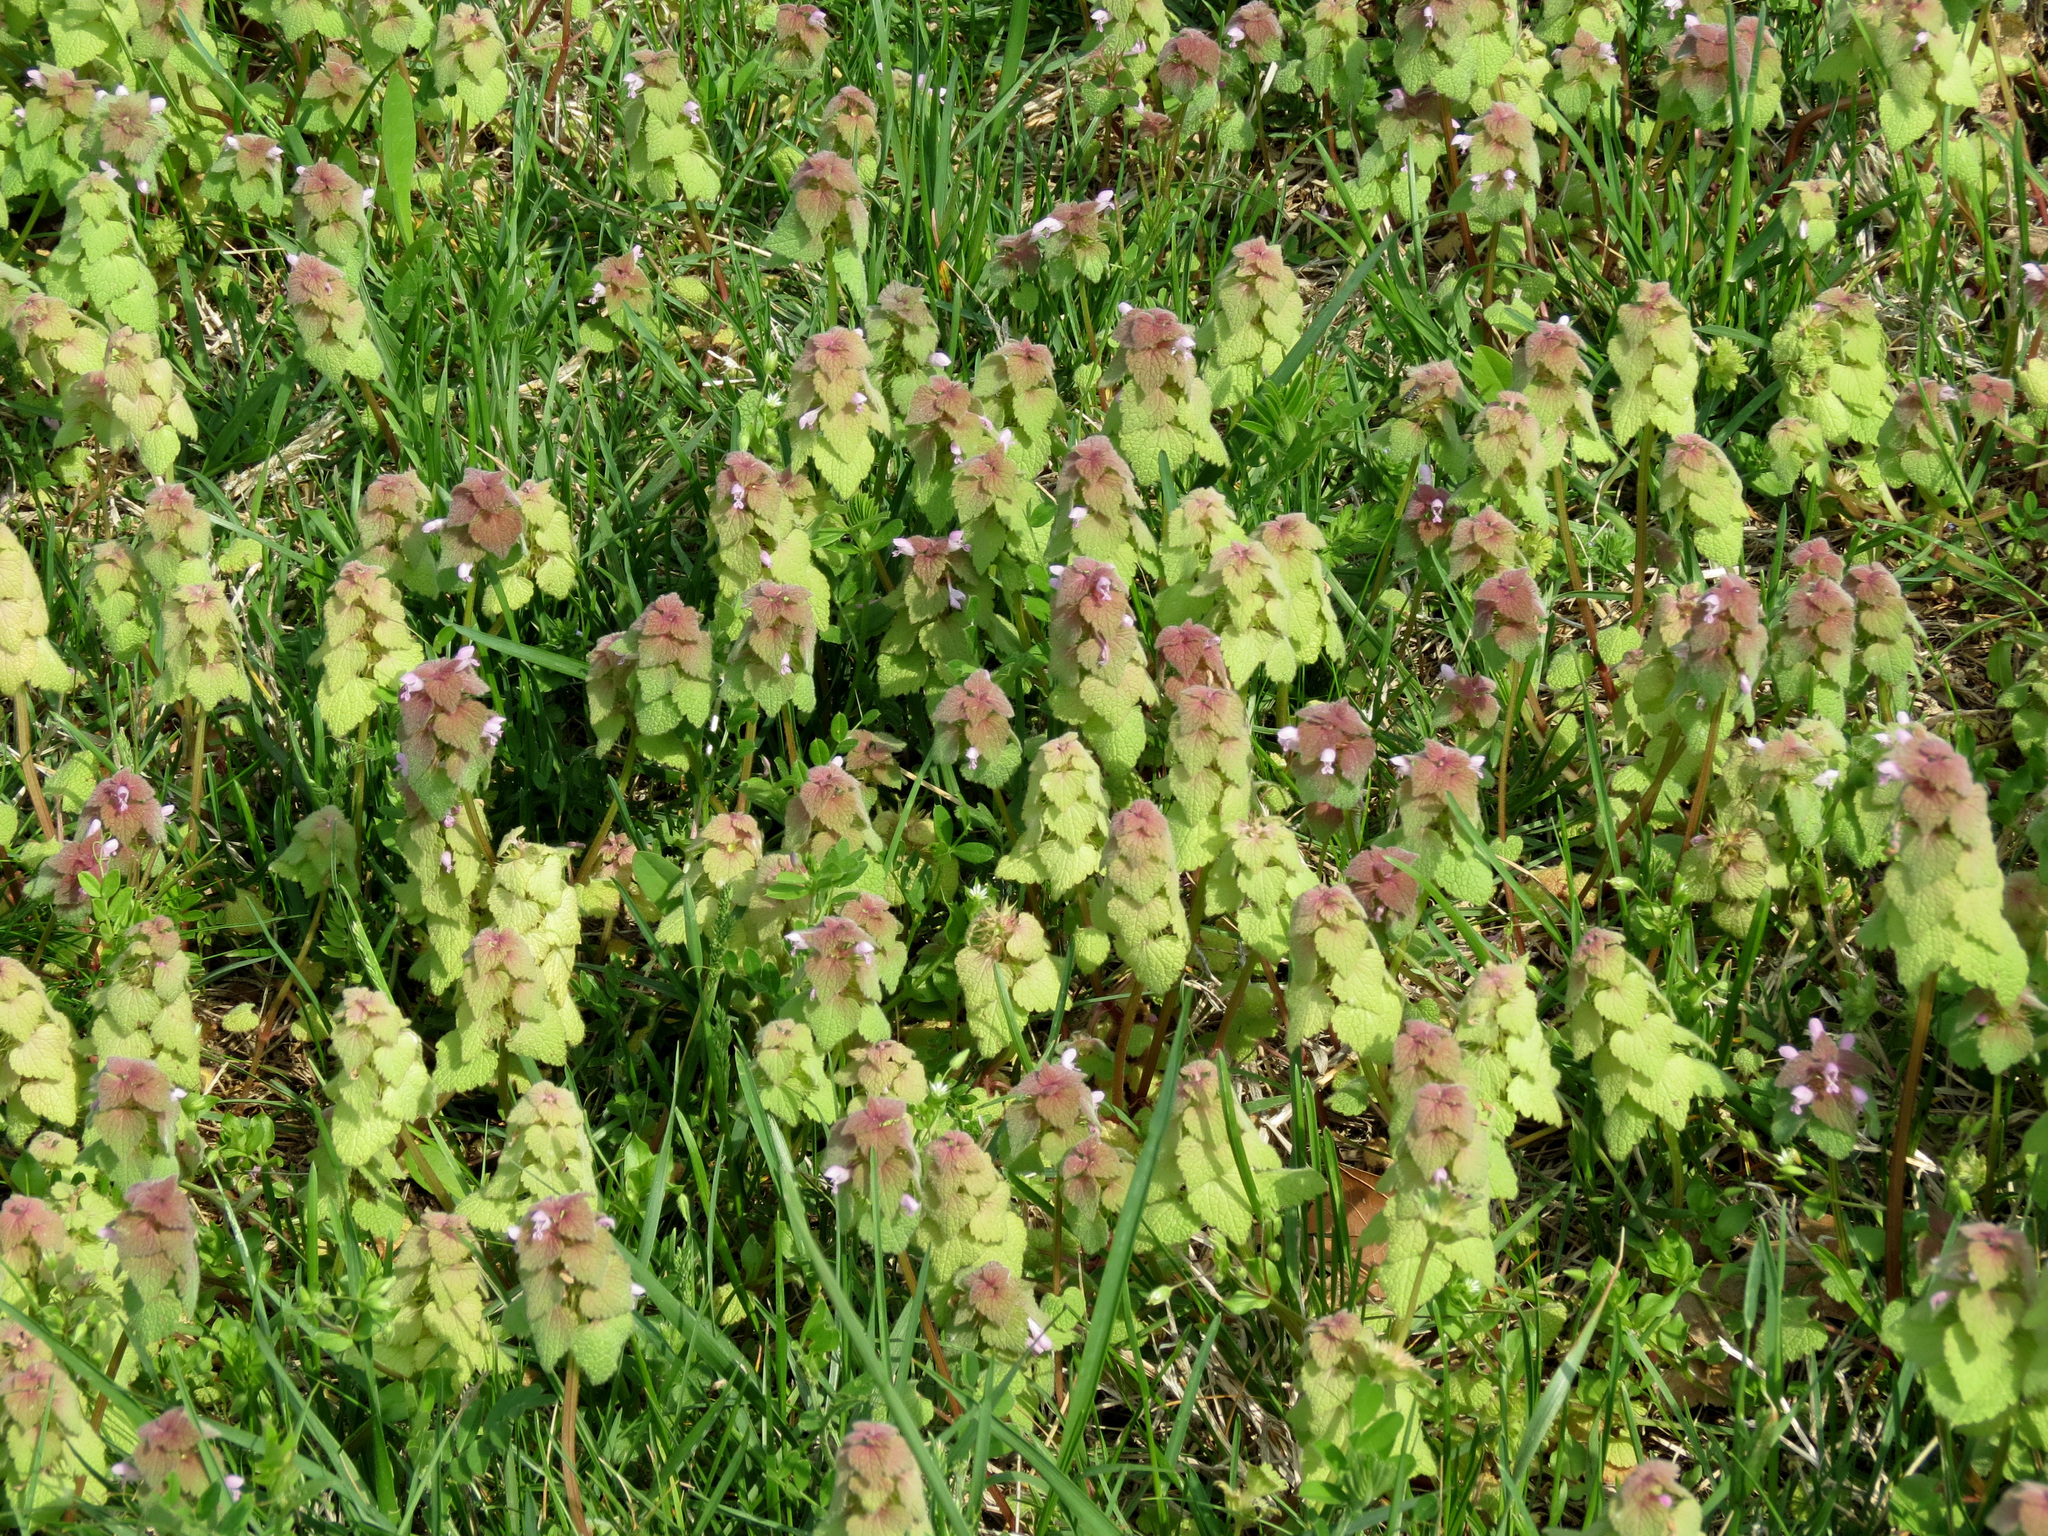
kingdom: Plantae
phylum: Tracheophyta
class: Magnoliopsida
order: Lamiales
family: Lamiaceae
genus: Lamium
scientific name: Lamium purpureum
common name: Red dead-nettle
